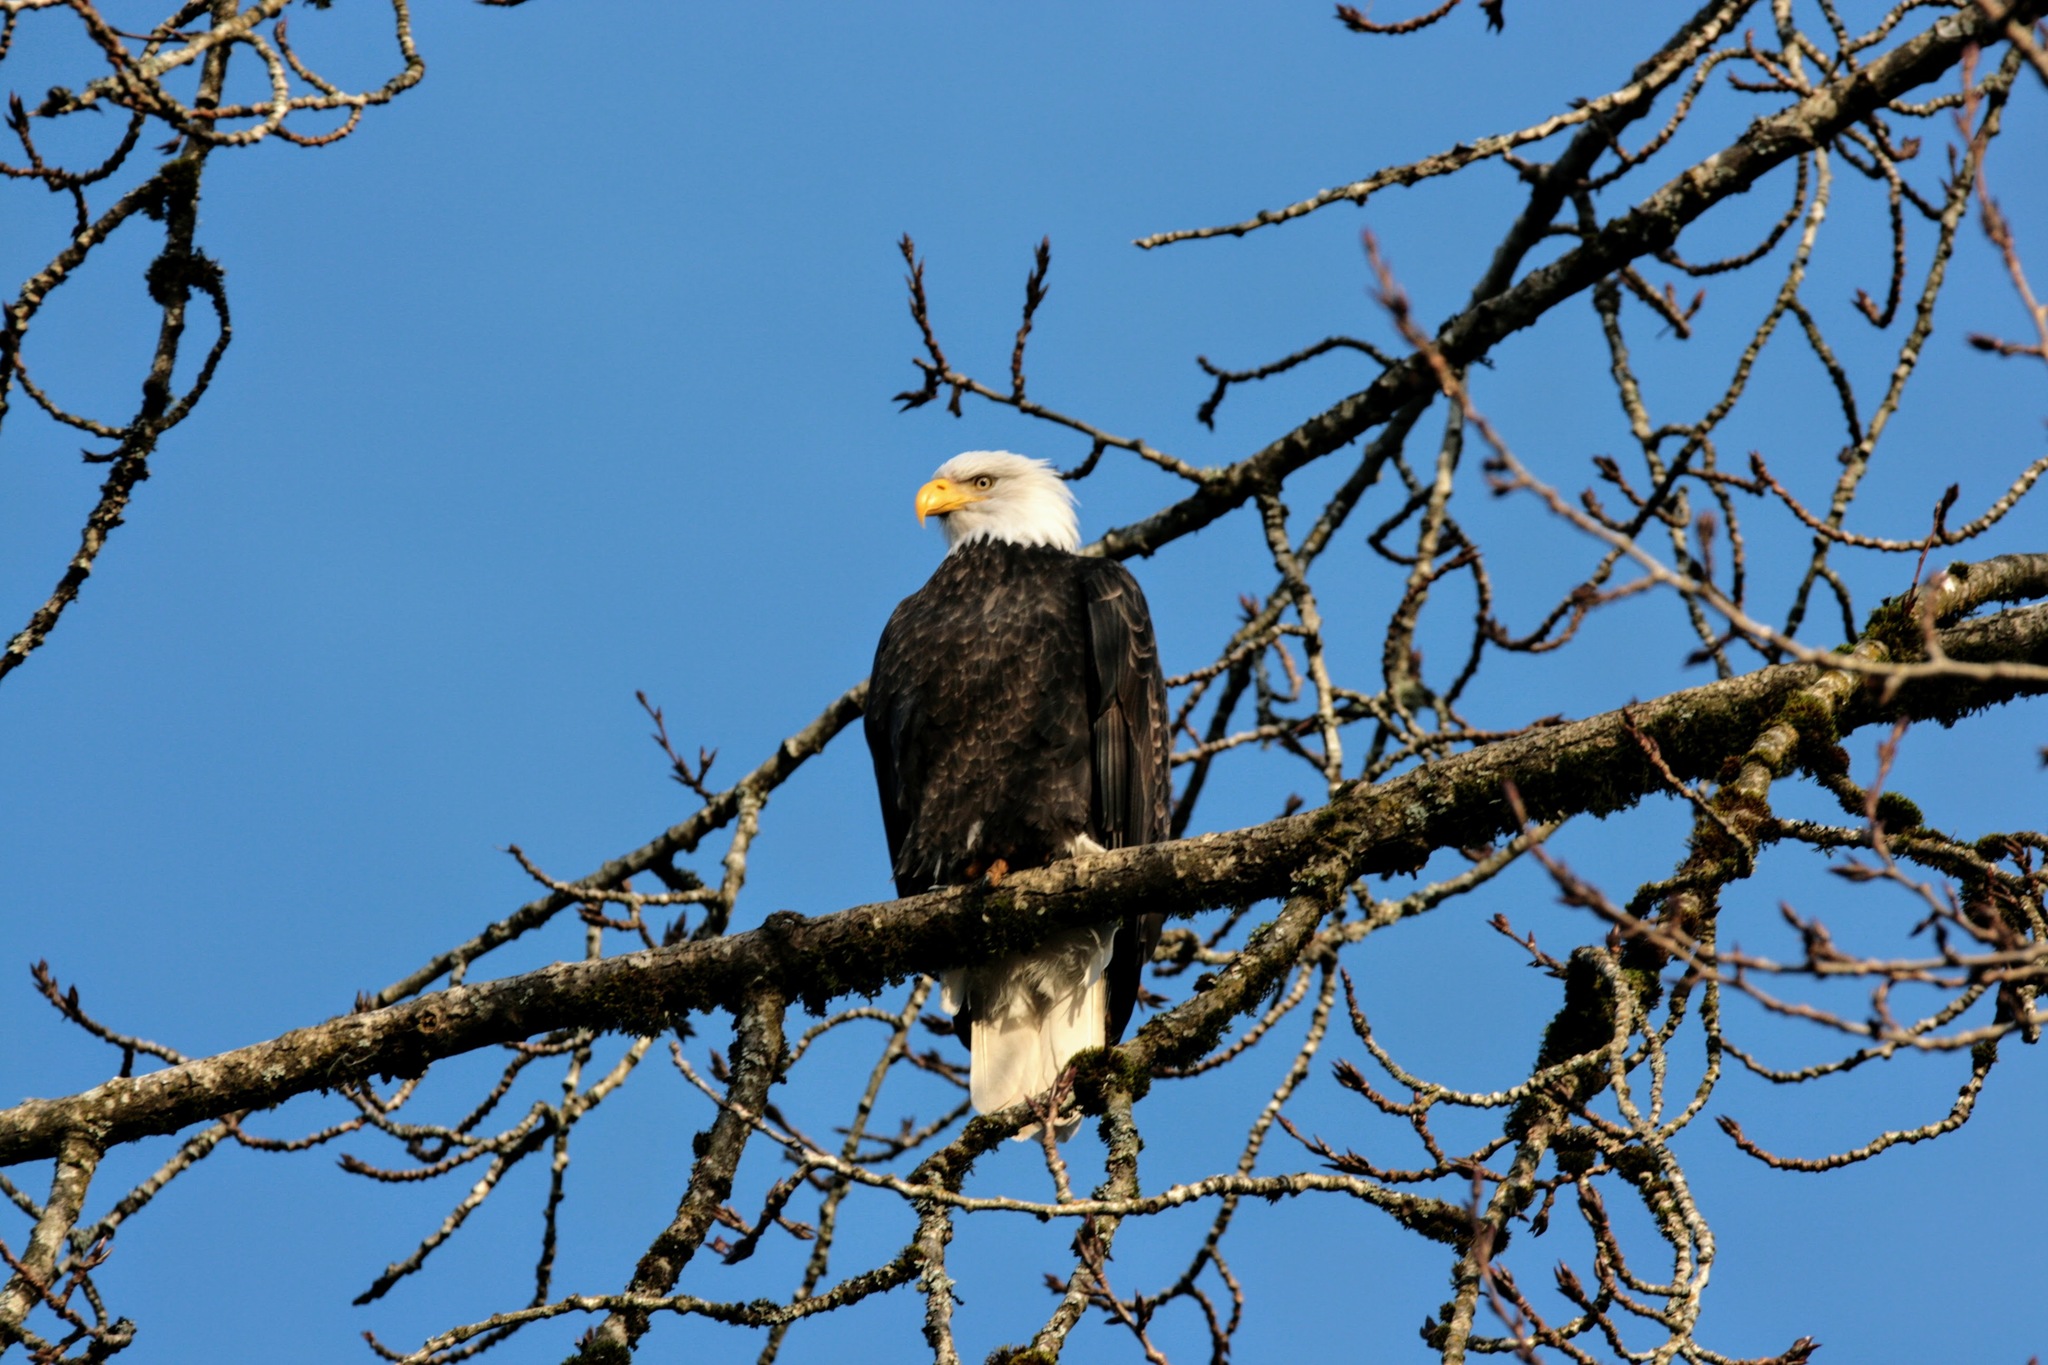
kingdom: Animalia
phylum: Chordata
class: Aves
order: Accipitriformes
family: Accipitridae
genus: Haliaeetus
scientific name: Haliaeetus leucocephalus
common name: Bald eagle
